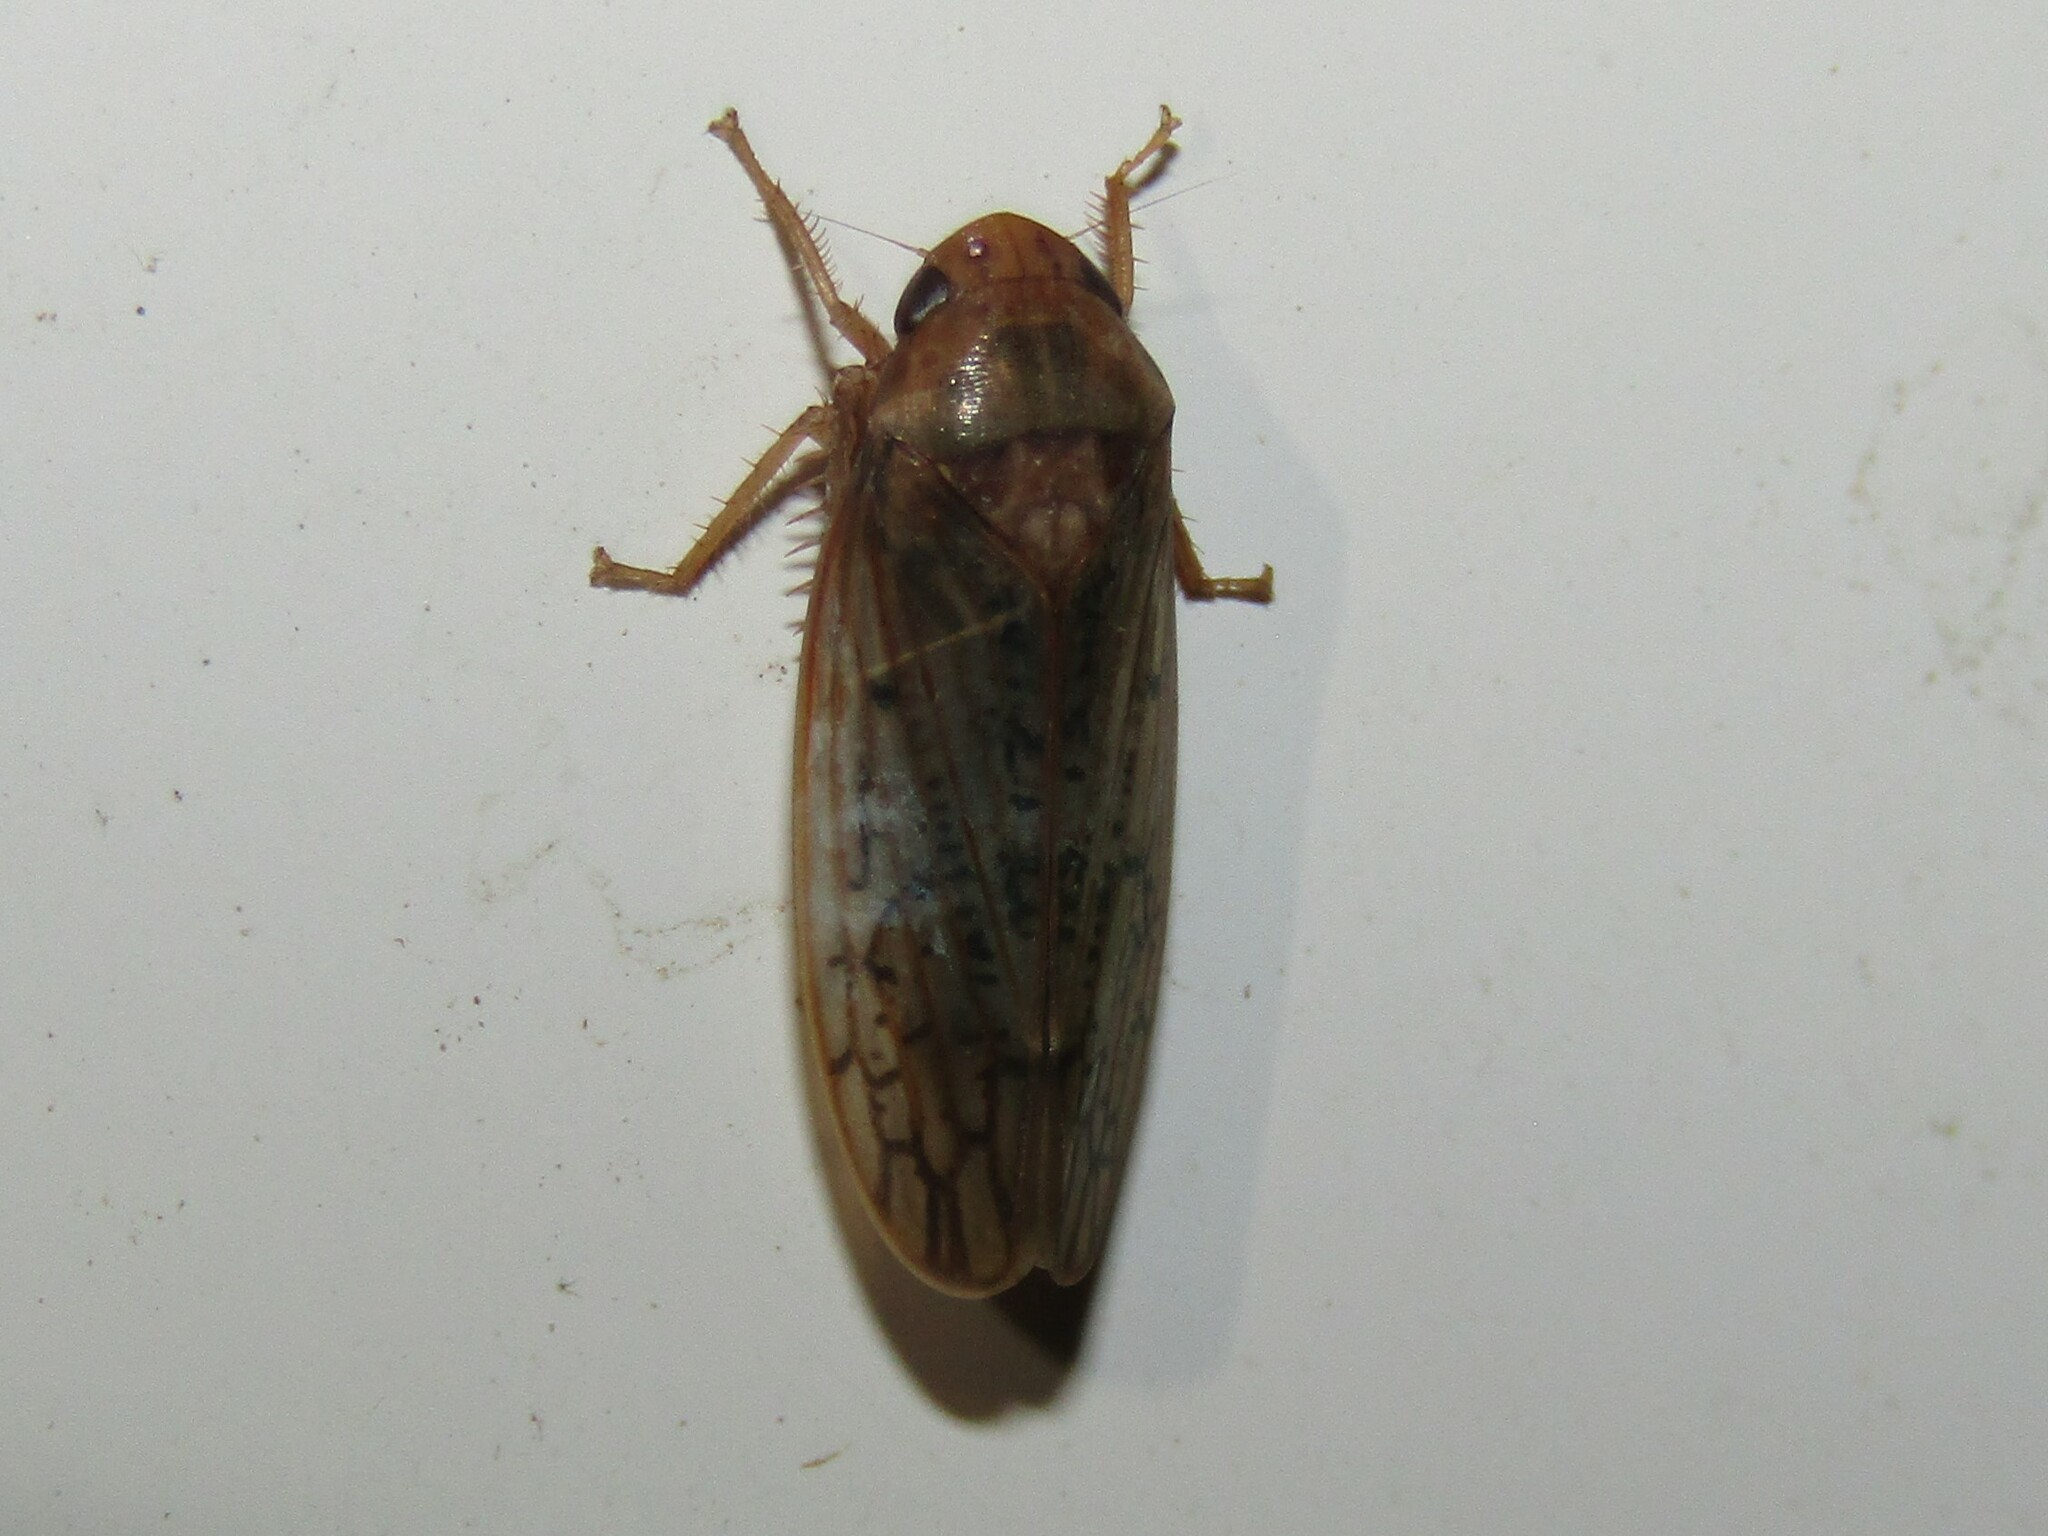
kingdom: Animalia
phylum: Arthropoda
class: Insecta
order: Hemiptera
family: Cicadellidae
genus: Ponana
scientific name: Ponana rubida
